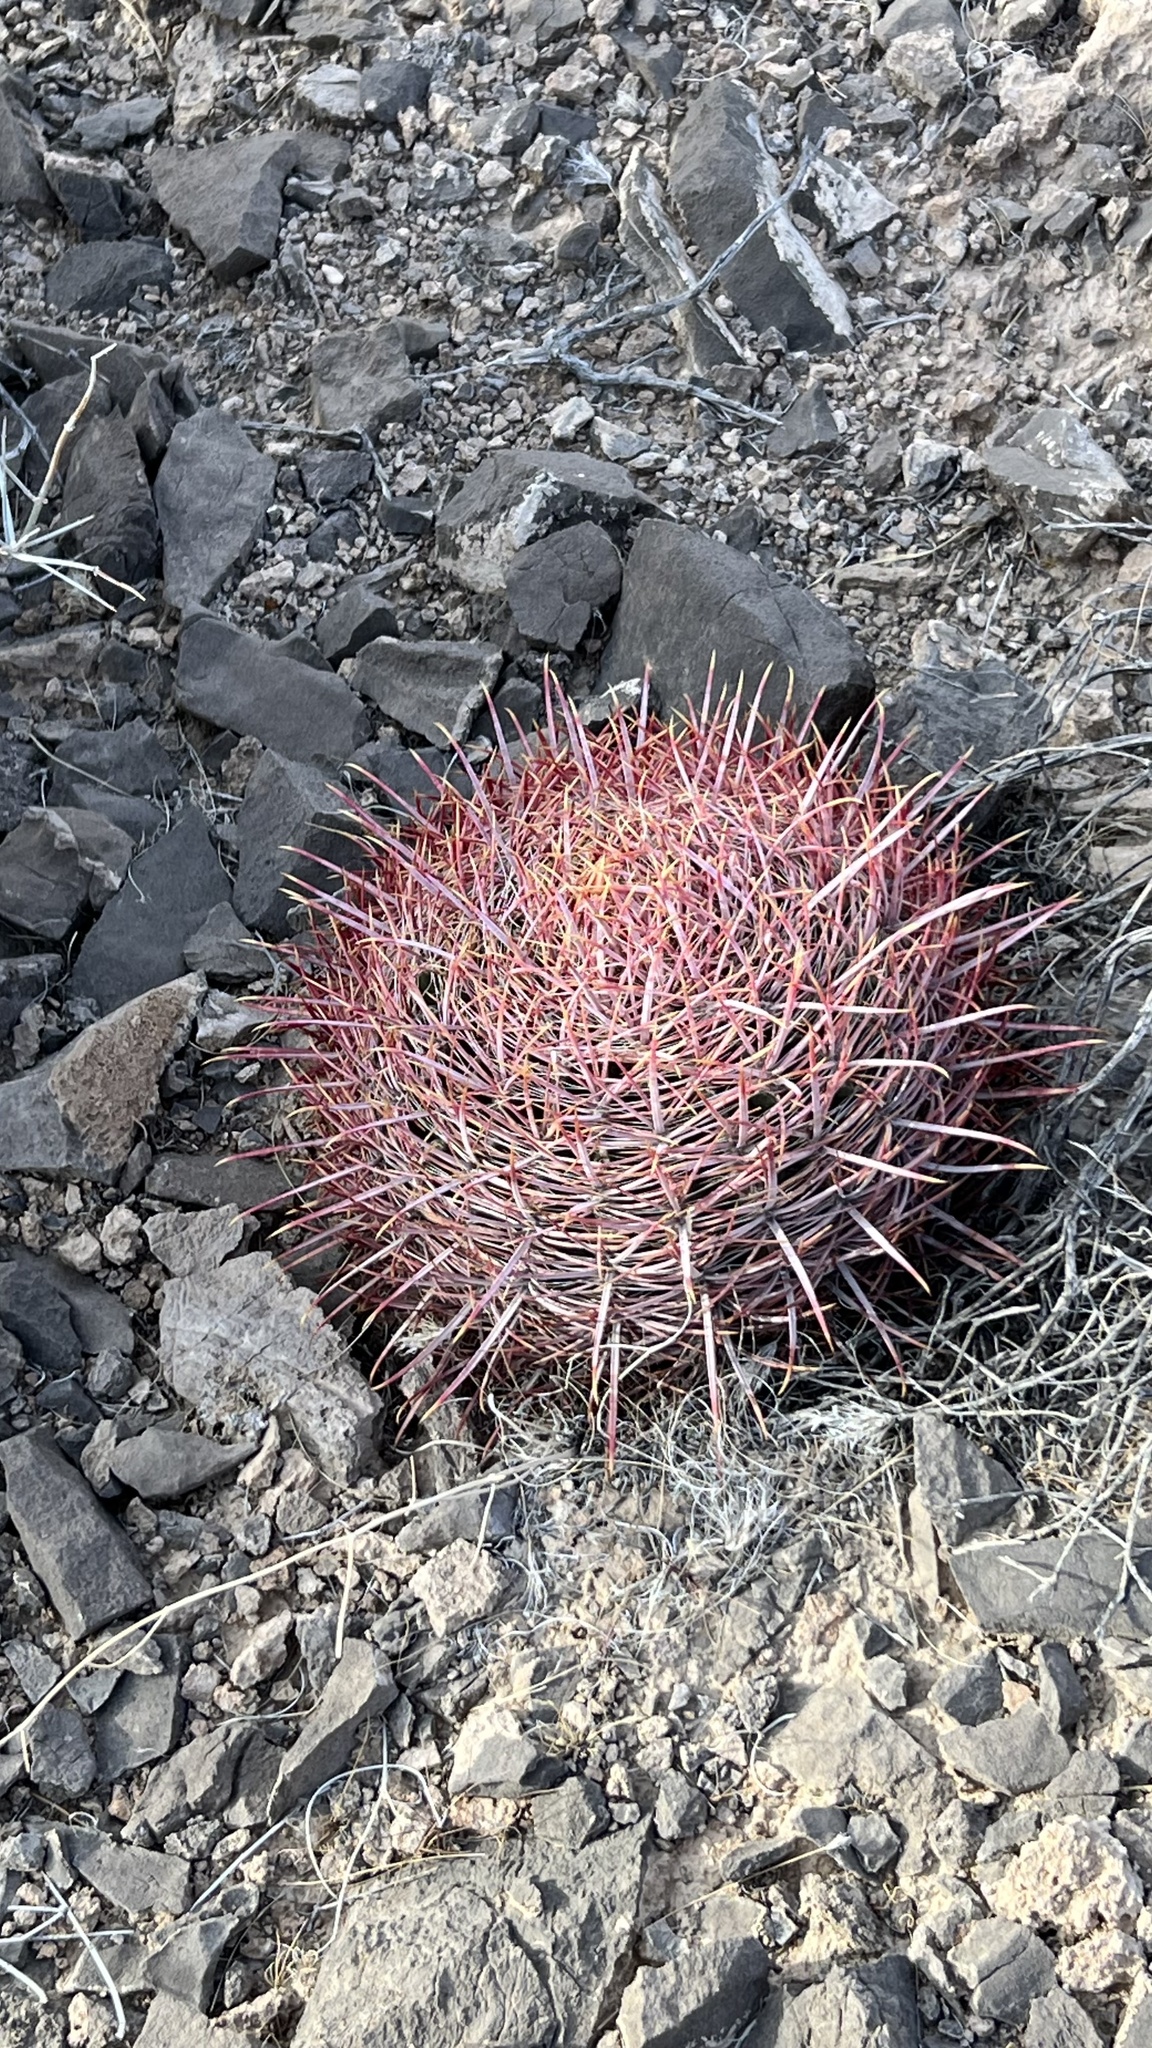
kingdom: Plantae
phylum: Tracheophyta
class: Magnoliopsida
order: Caryophyllales
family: Cactaceae
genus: Ferocactus
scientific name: Ferocactus cylindraceus
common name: California barrel cactus
